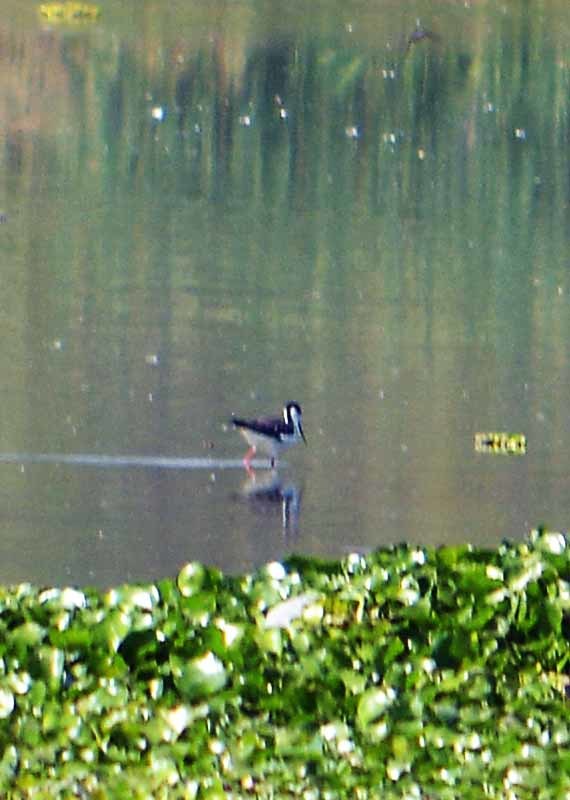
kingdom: Animalia
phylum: Chordata
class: Aves
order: Charadriiformes
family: Recurvirostridae
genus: Himantopus
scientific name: Himantopus mexicanus
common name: Black-necked stilt
